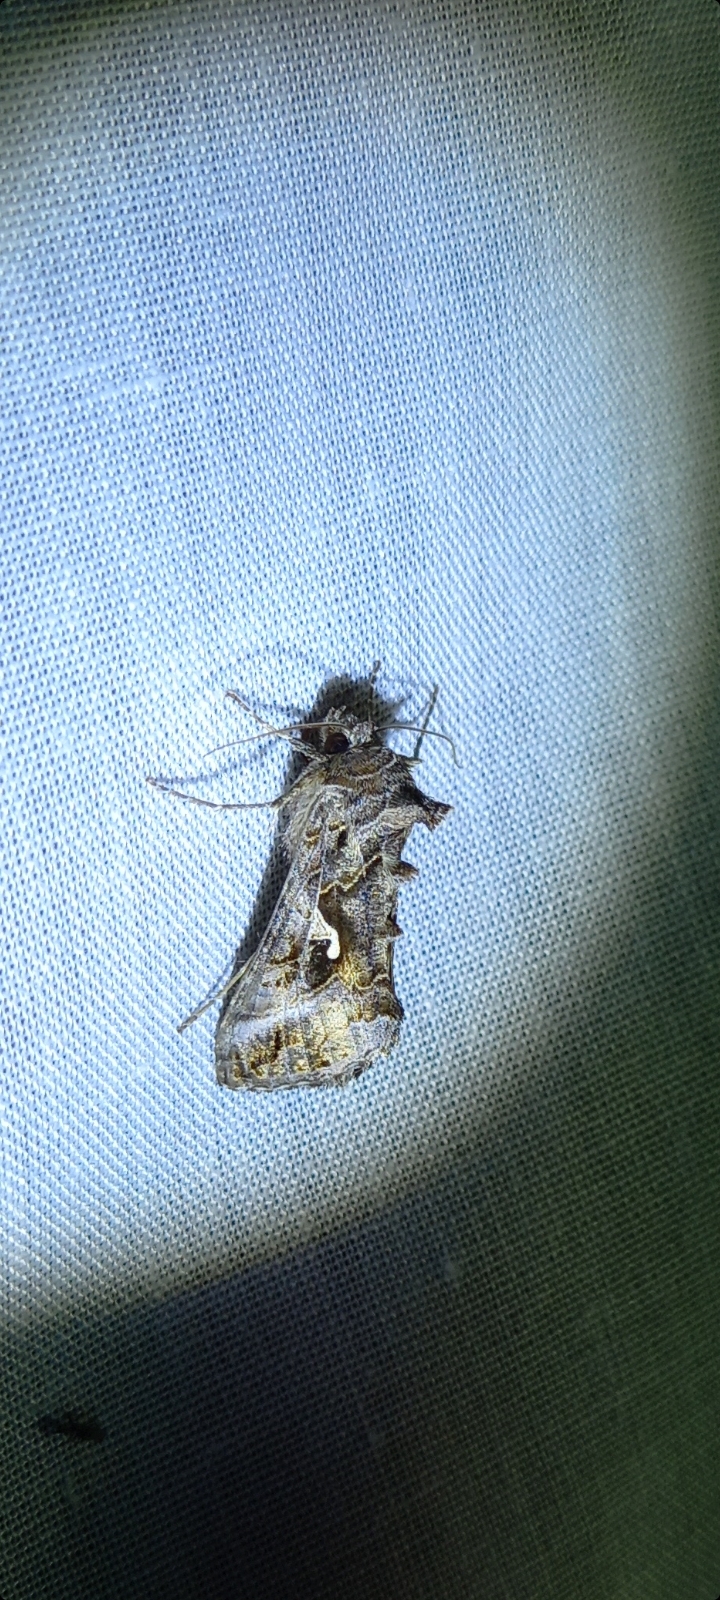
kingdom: Animalia
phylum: Arthropoda
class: Insecta
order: Lepidoptera
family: Noctuidae
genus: Autographa
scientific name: Autographa gamma
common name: Silver y
